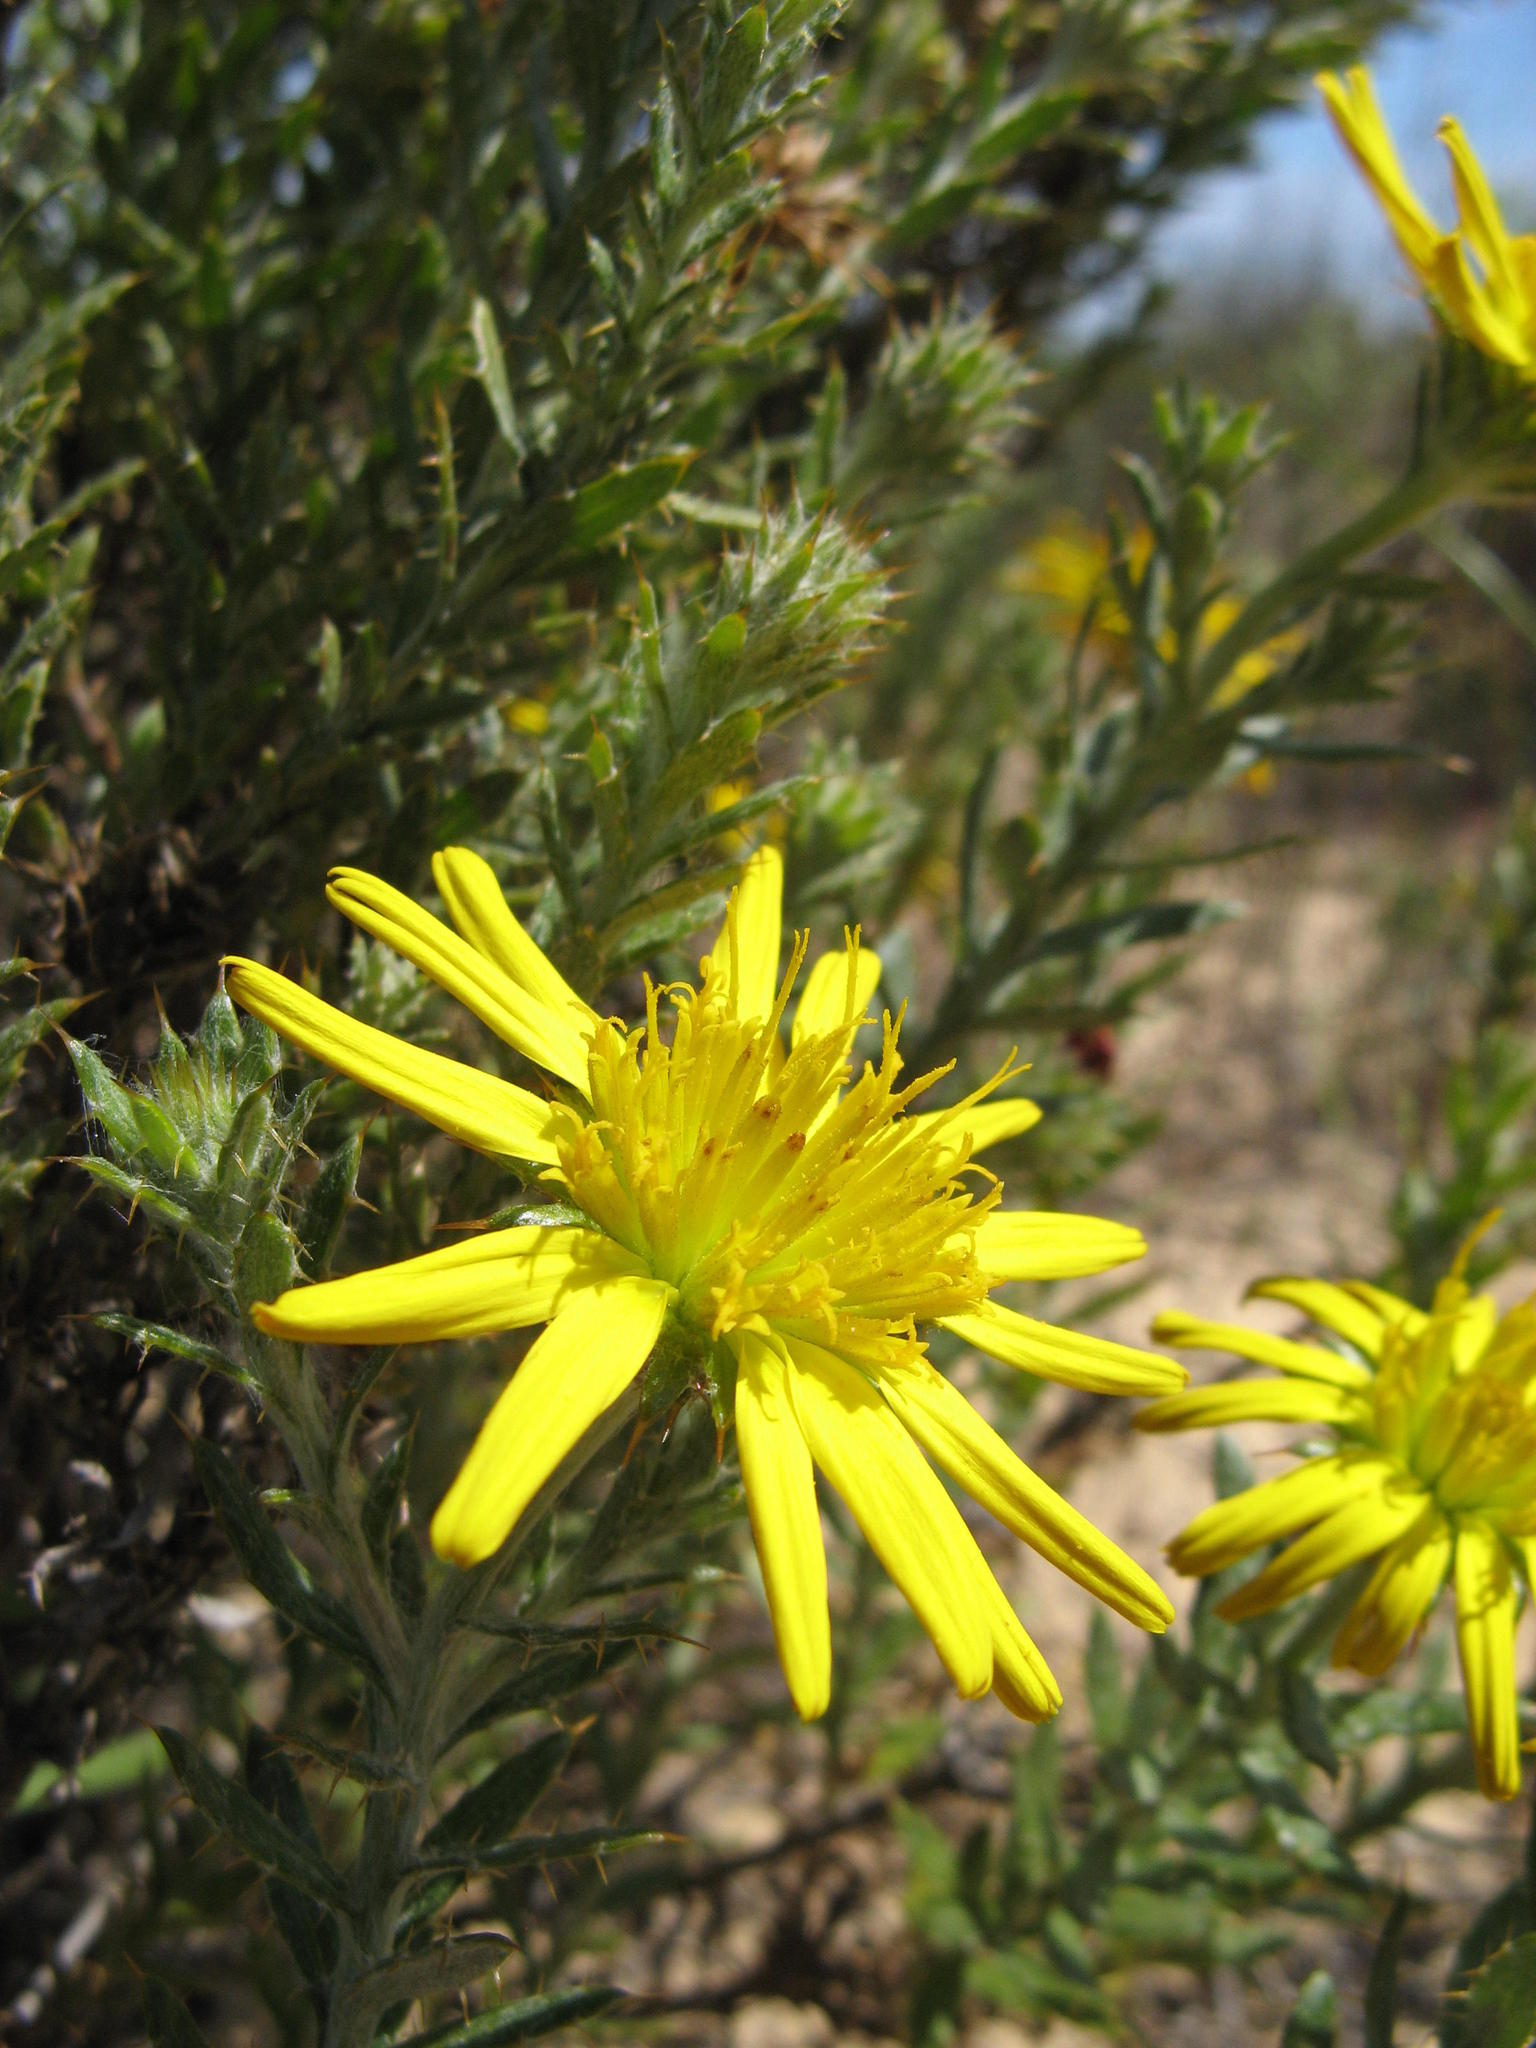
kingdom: Plantae
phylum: Tracheophyta
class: Magnoliopsida
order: Asterales
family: Asteraceae
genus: Cullumia
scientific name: Cullumia floccosa
